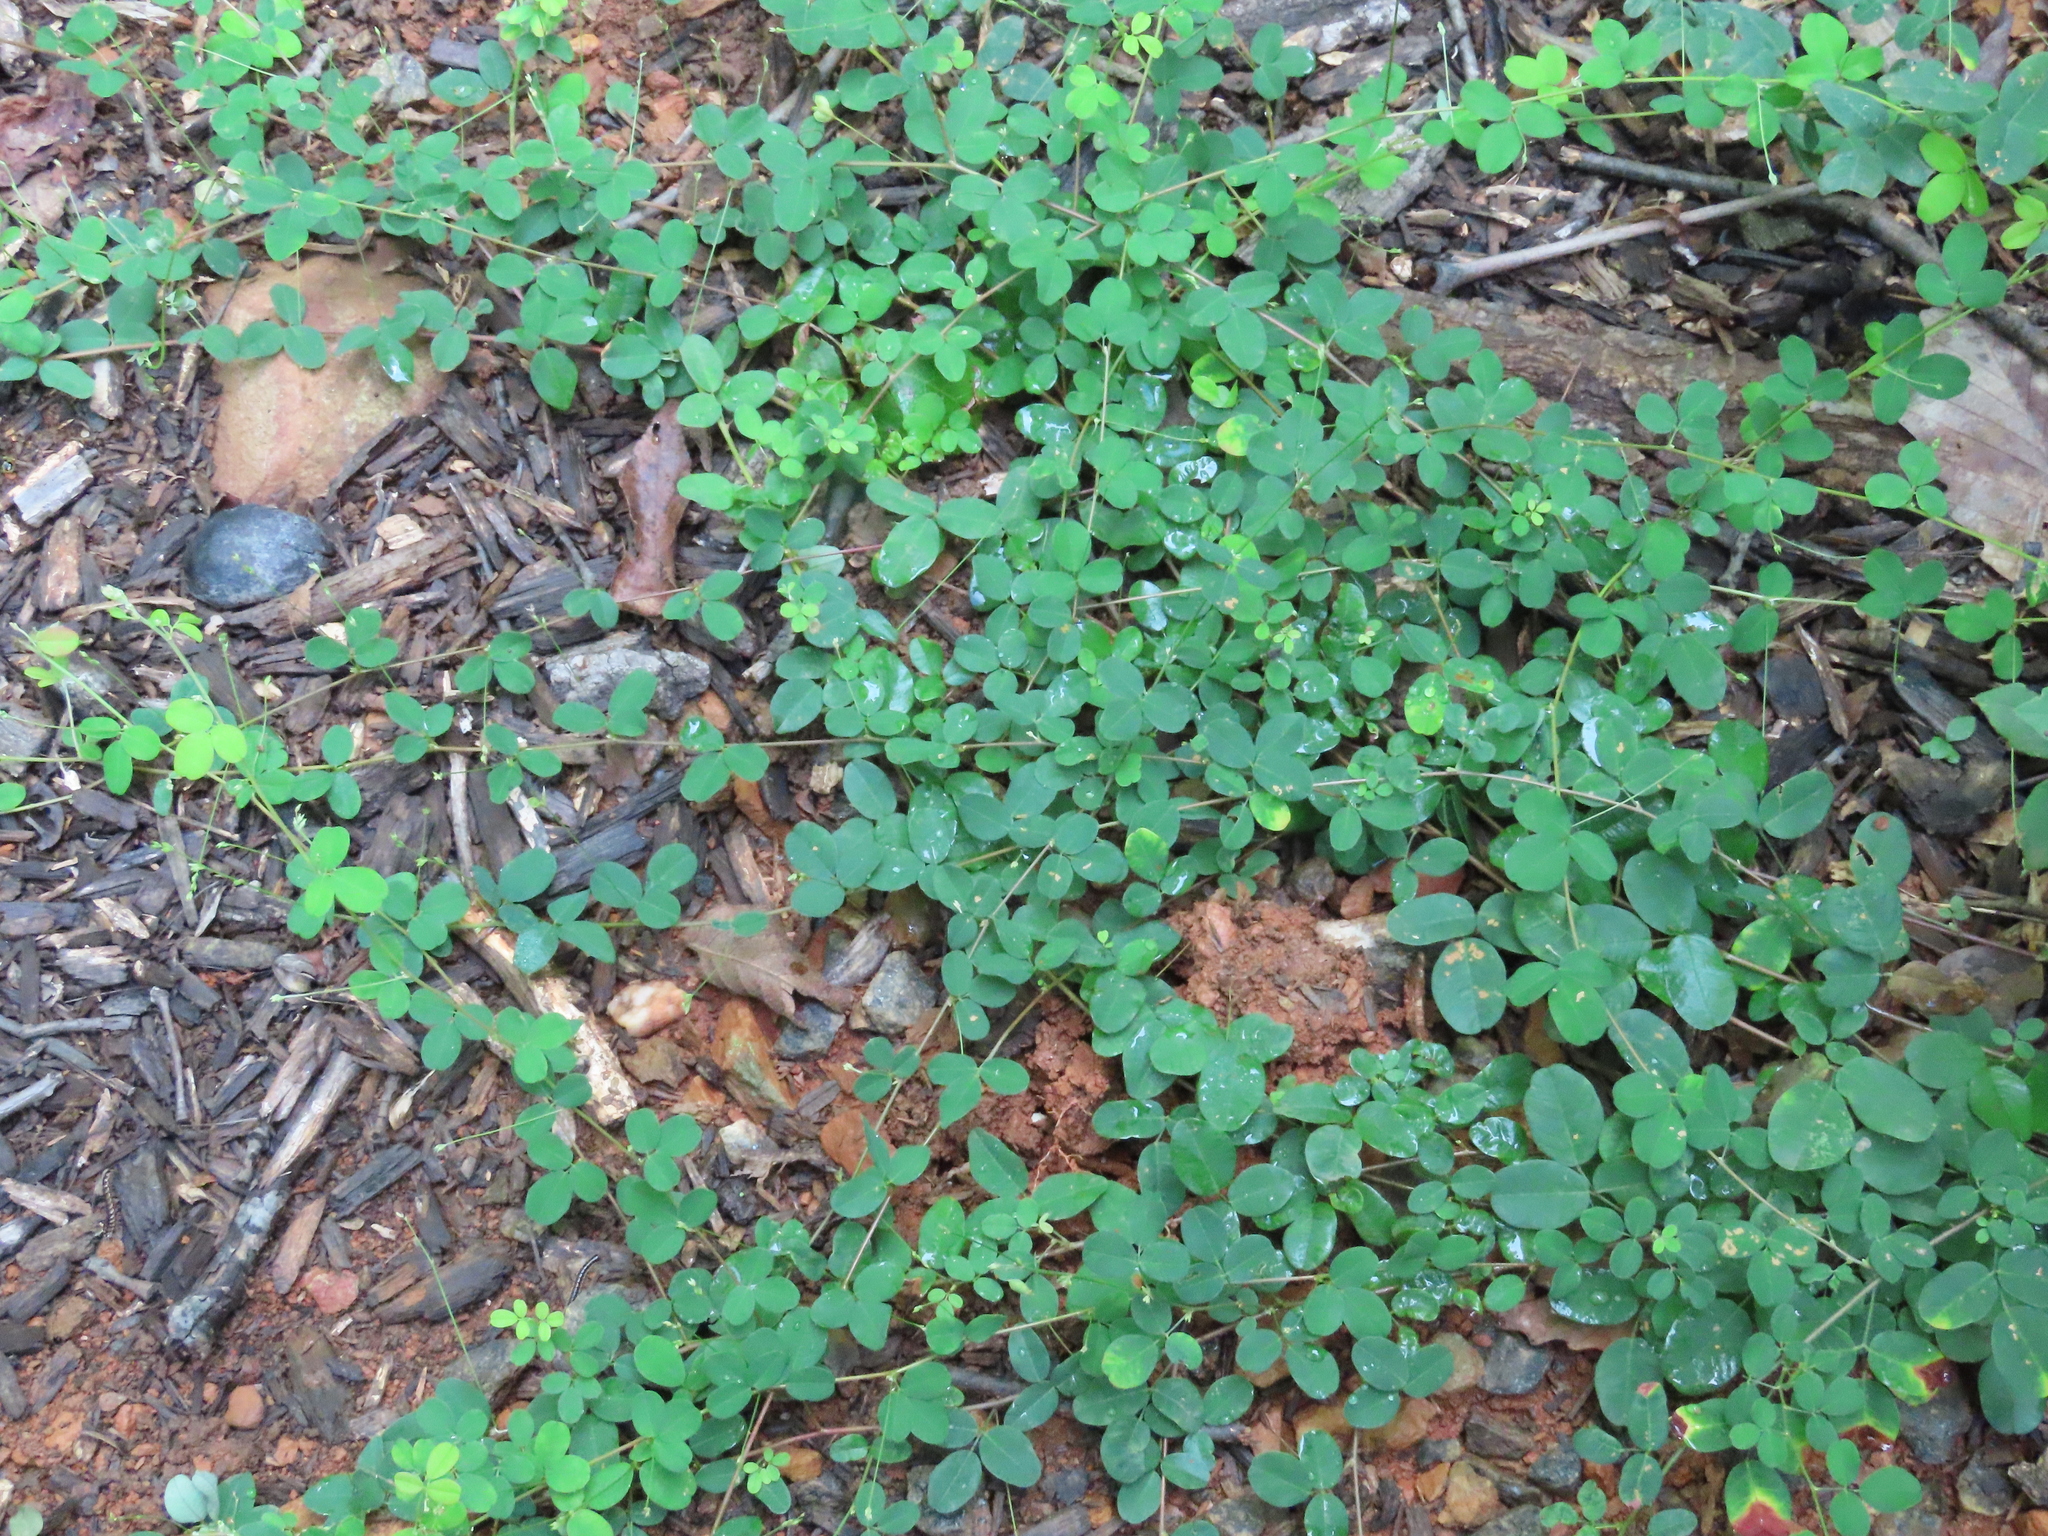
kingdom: Plantae
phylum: Tracheophyta
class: Magnoliopsida
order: Fabales
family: Fabaceae
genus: Lespedeza
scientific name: Lespedeza repens
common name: Creeping bush-clover
